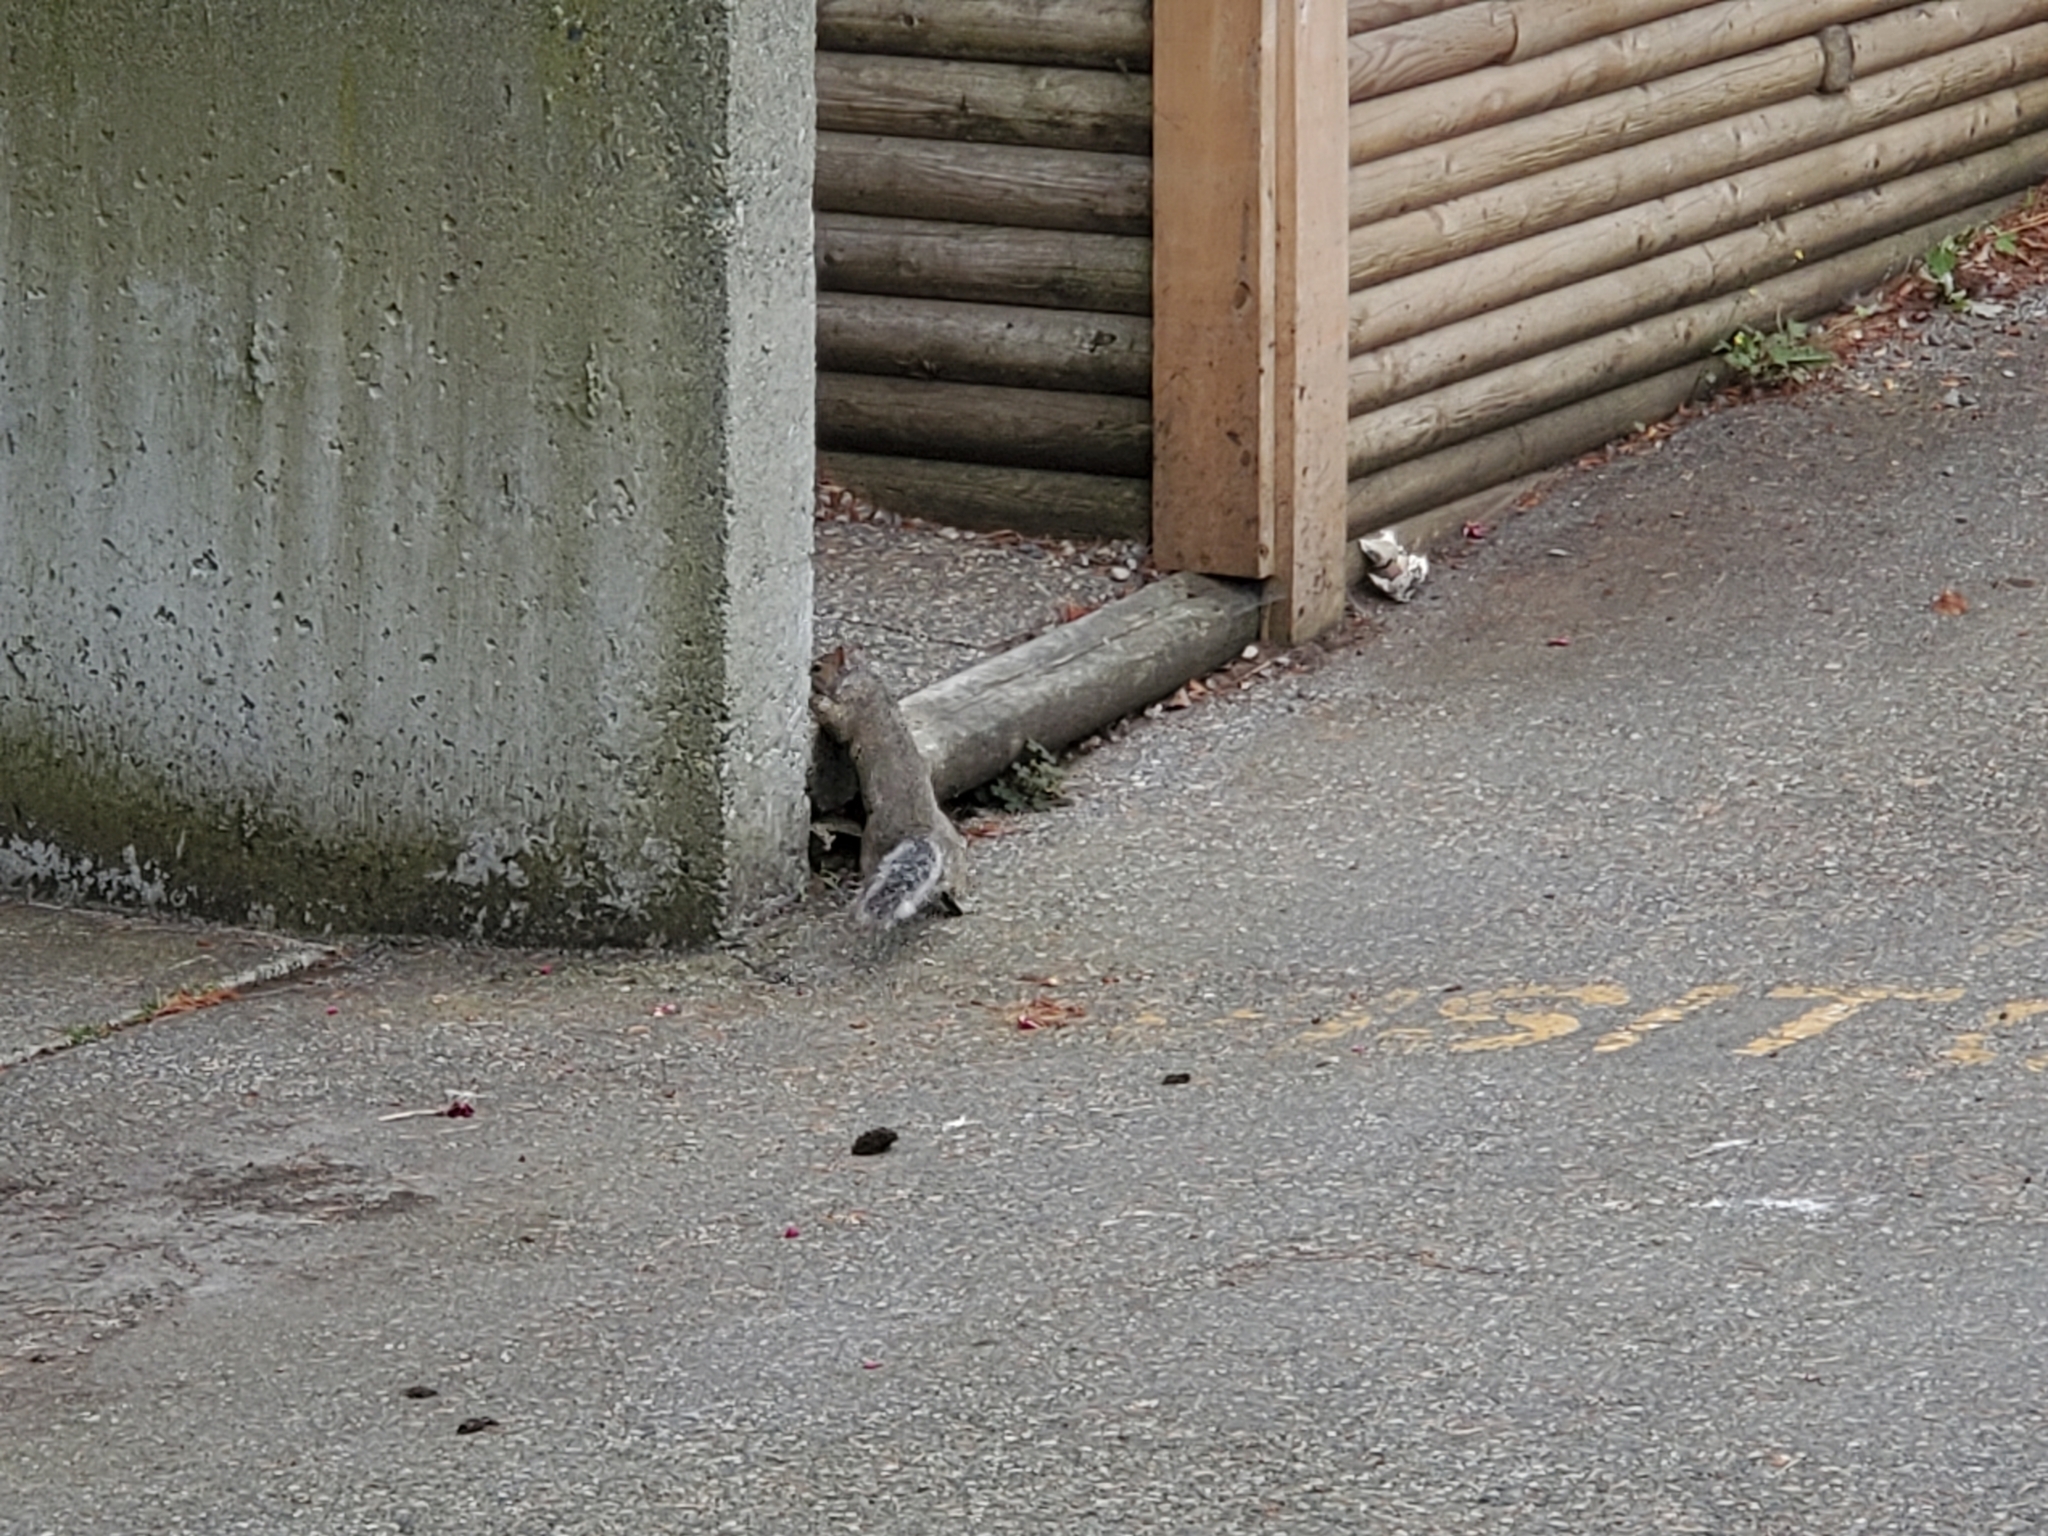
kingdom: Animalia
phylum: Chordata
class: Mammalia
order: Rodentia
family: Sciuridae
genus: Sciurus
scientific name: Sciurus carolinensis
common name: Eastern gray squirrel
